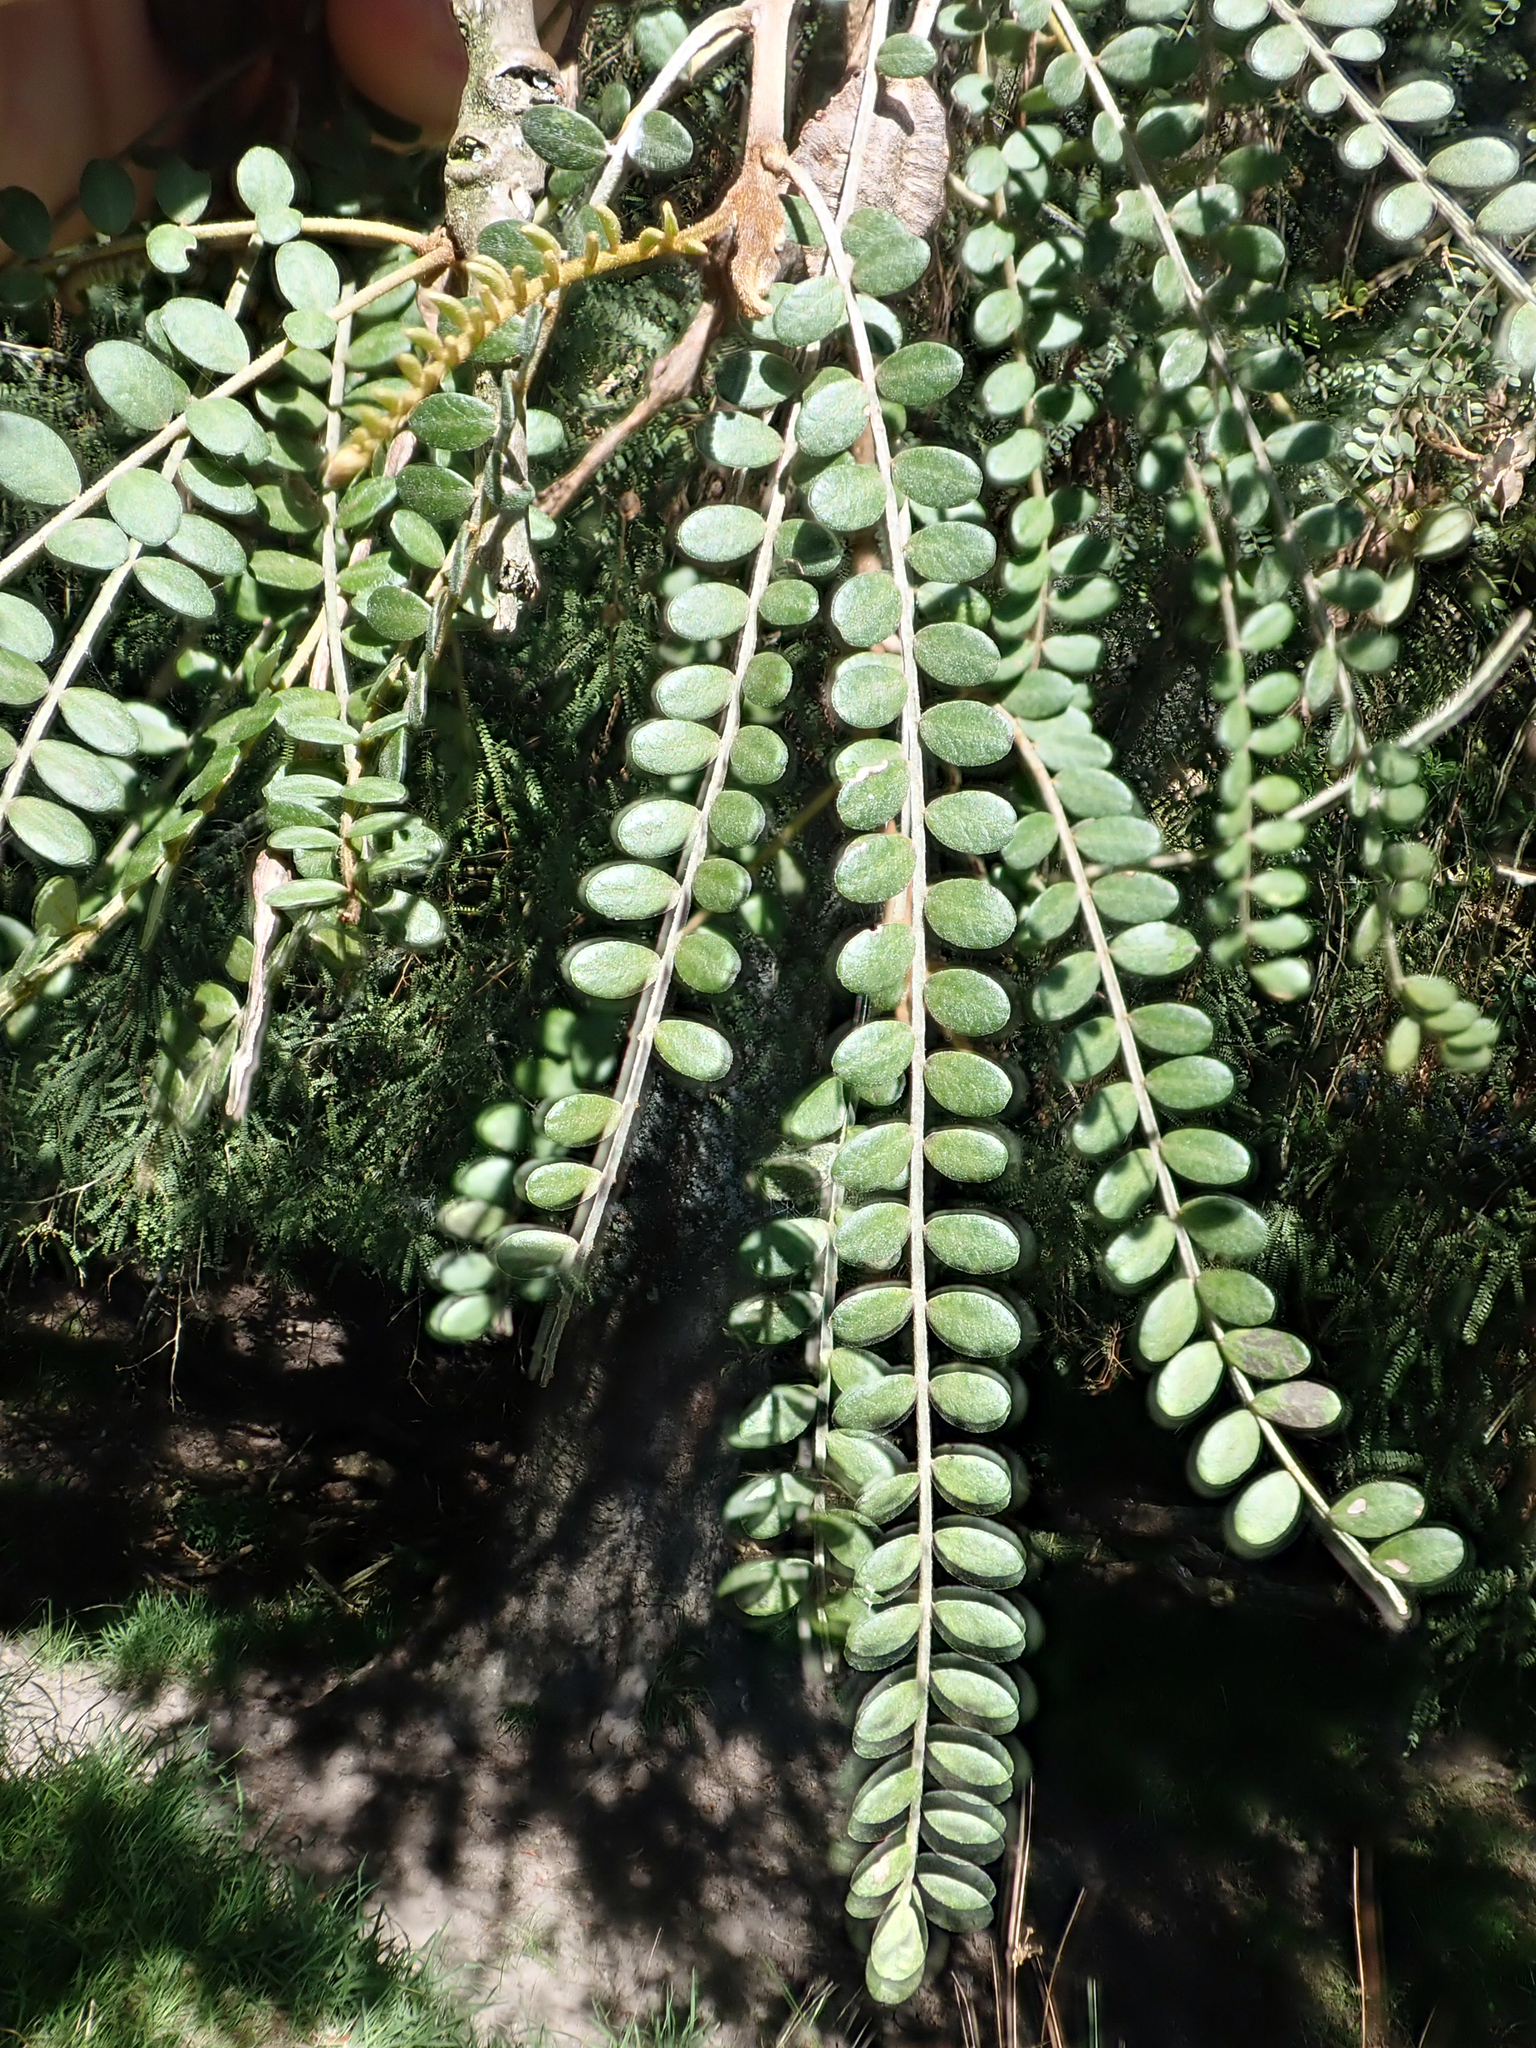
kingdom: Plantae
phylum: Tracheophyta
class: Magnoliopsida
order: Fabales
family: Fabaceae
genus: Sophora
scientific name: Sophora microphylla
